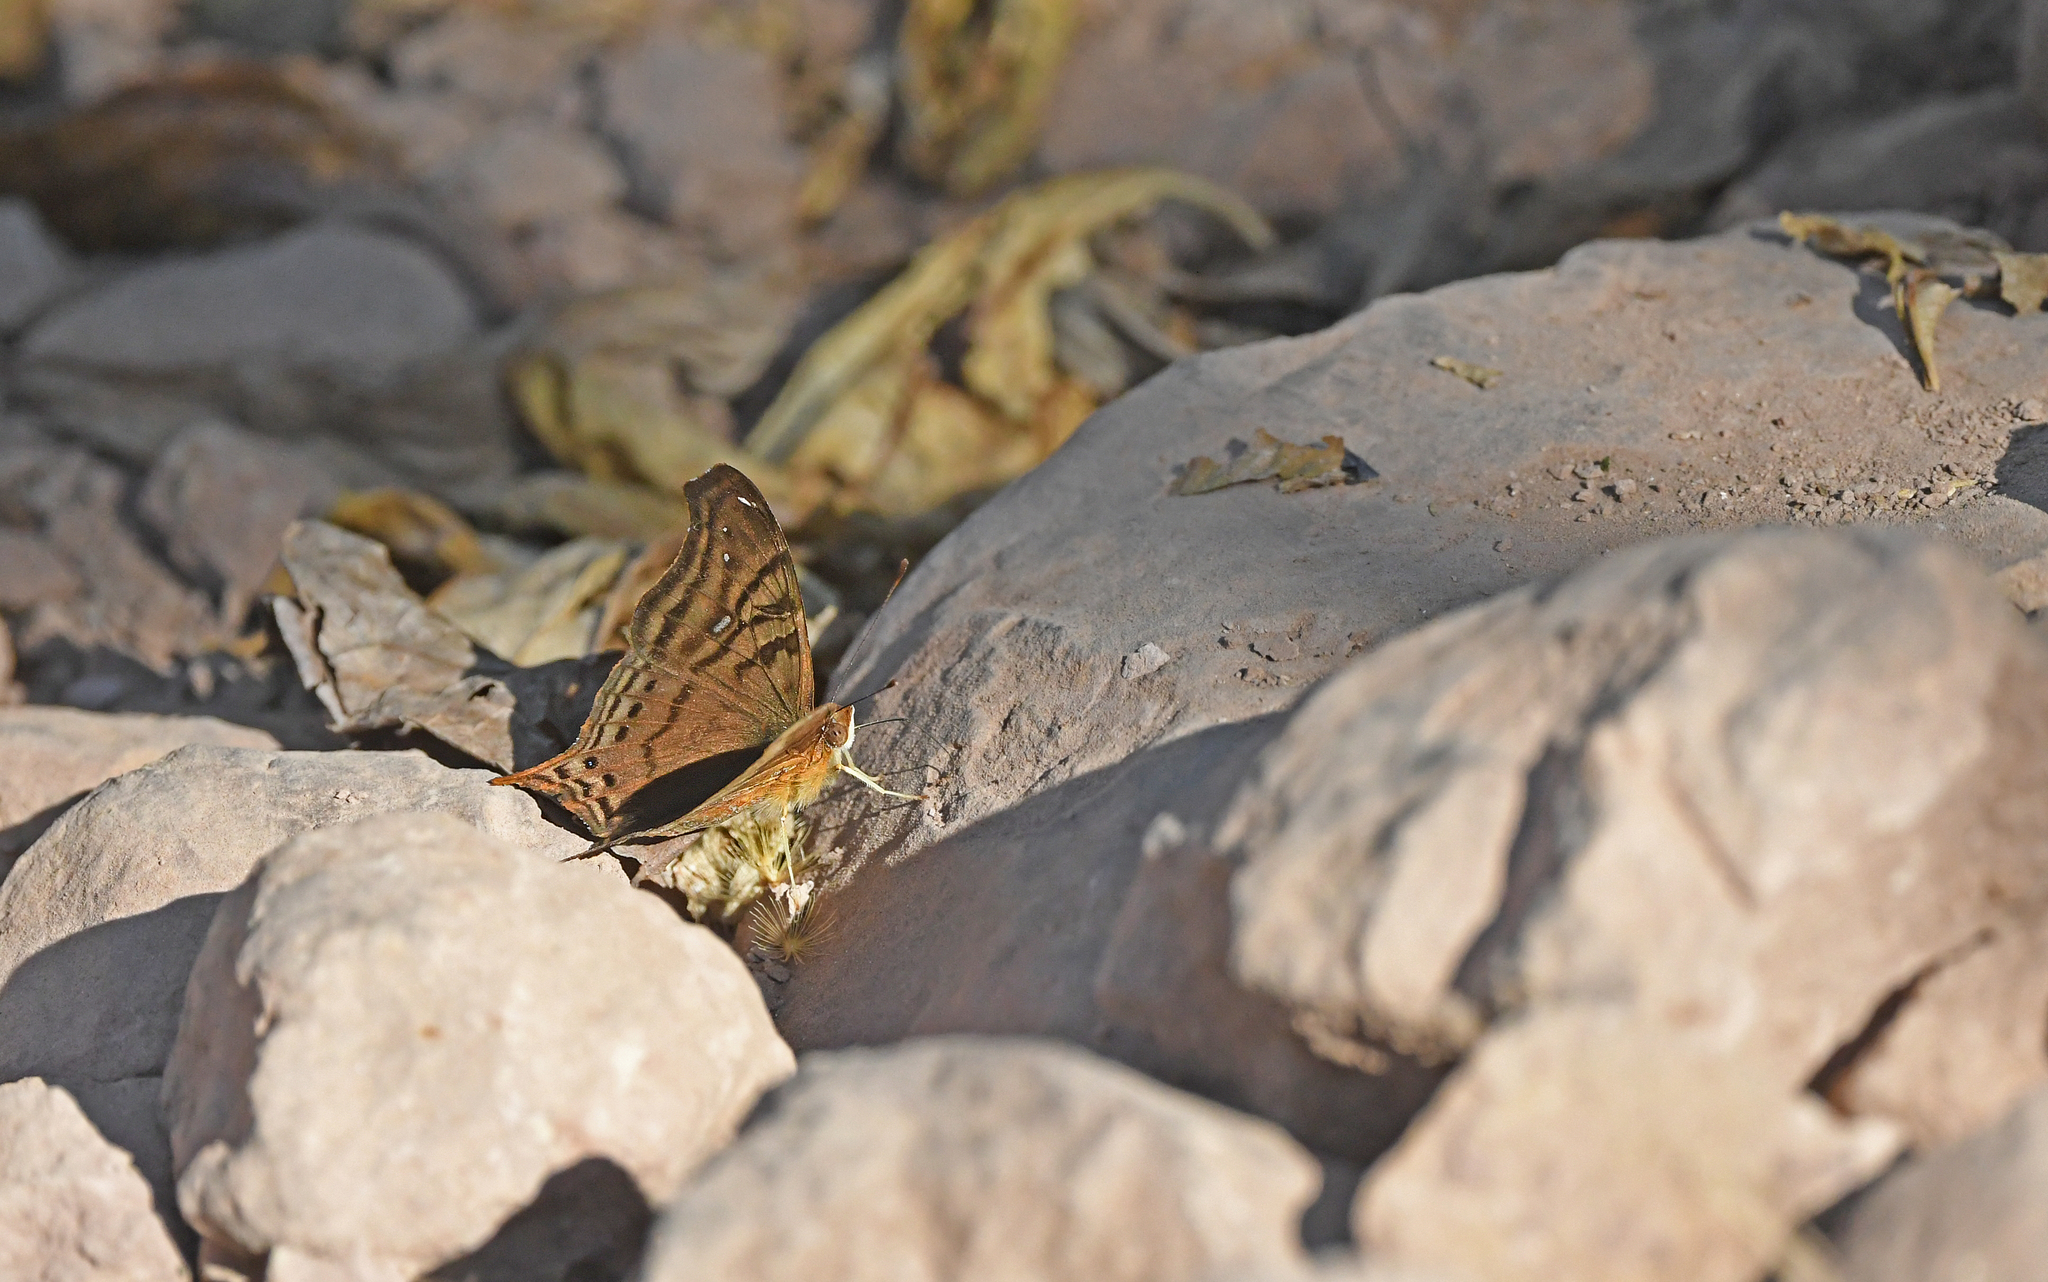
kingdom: Animalia
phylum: Arthropoda
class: Insecta
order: Lepidoptera
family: Nymphalidae
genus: Hypanartia
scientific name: Hypanartia dione
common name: Banded mapwing
